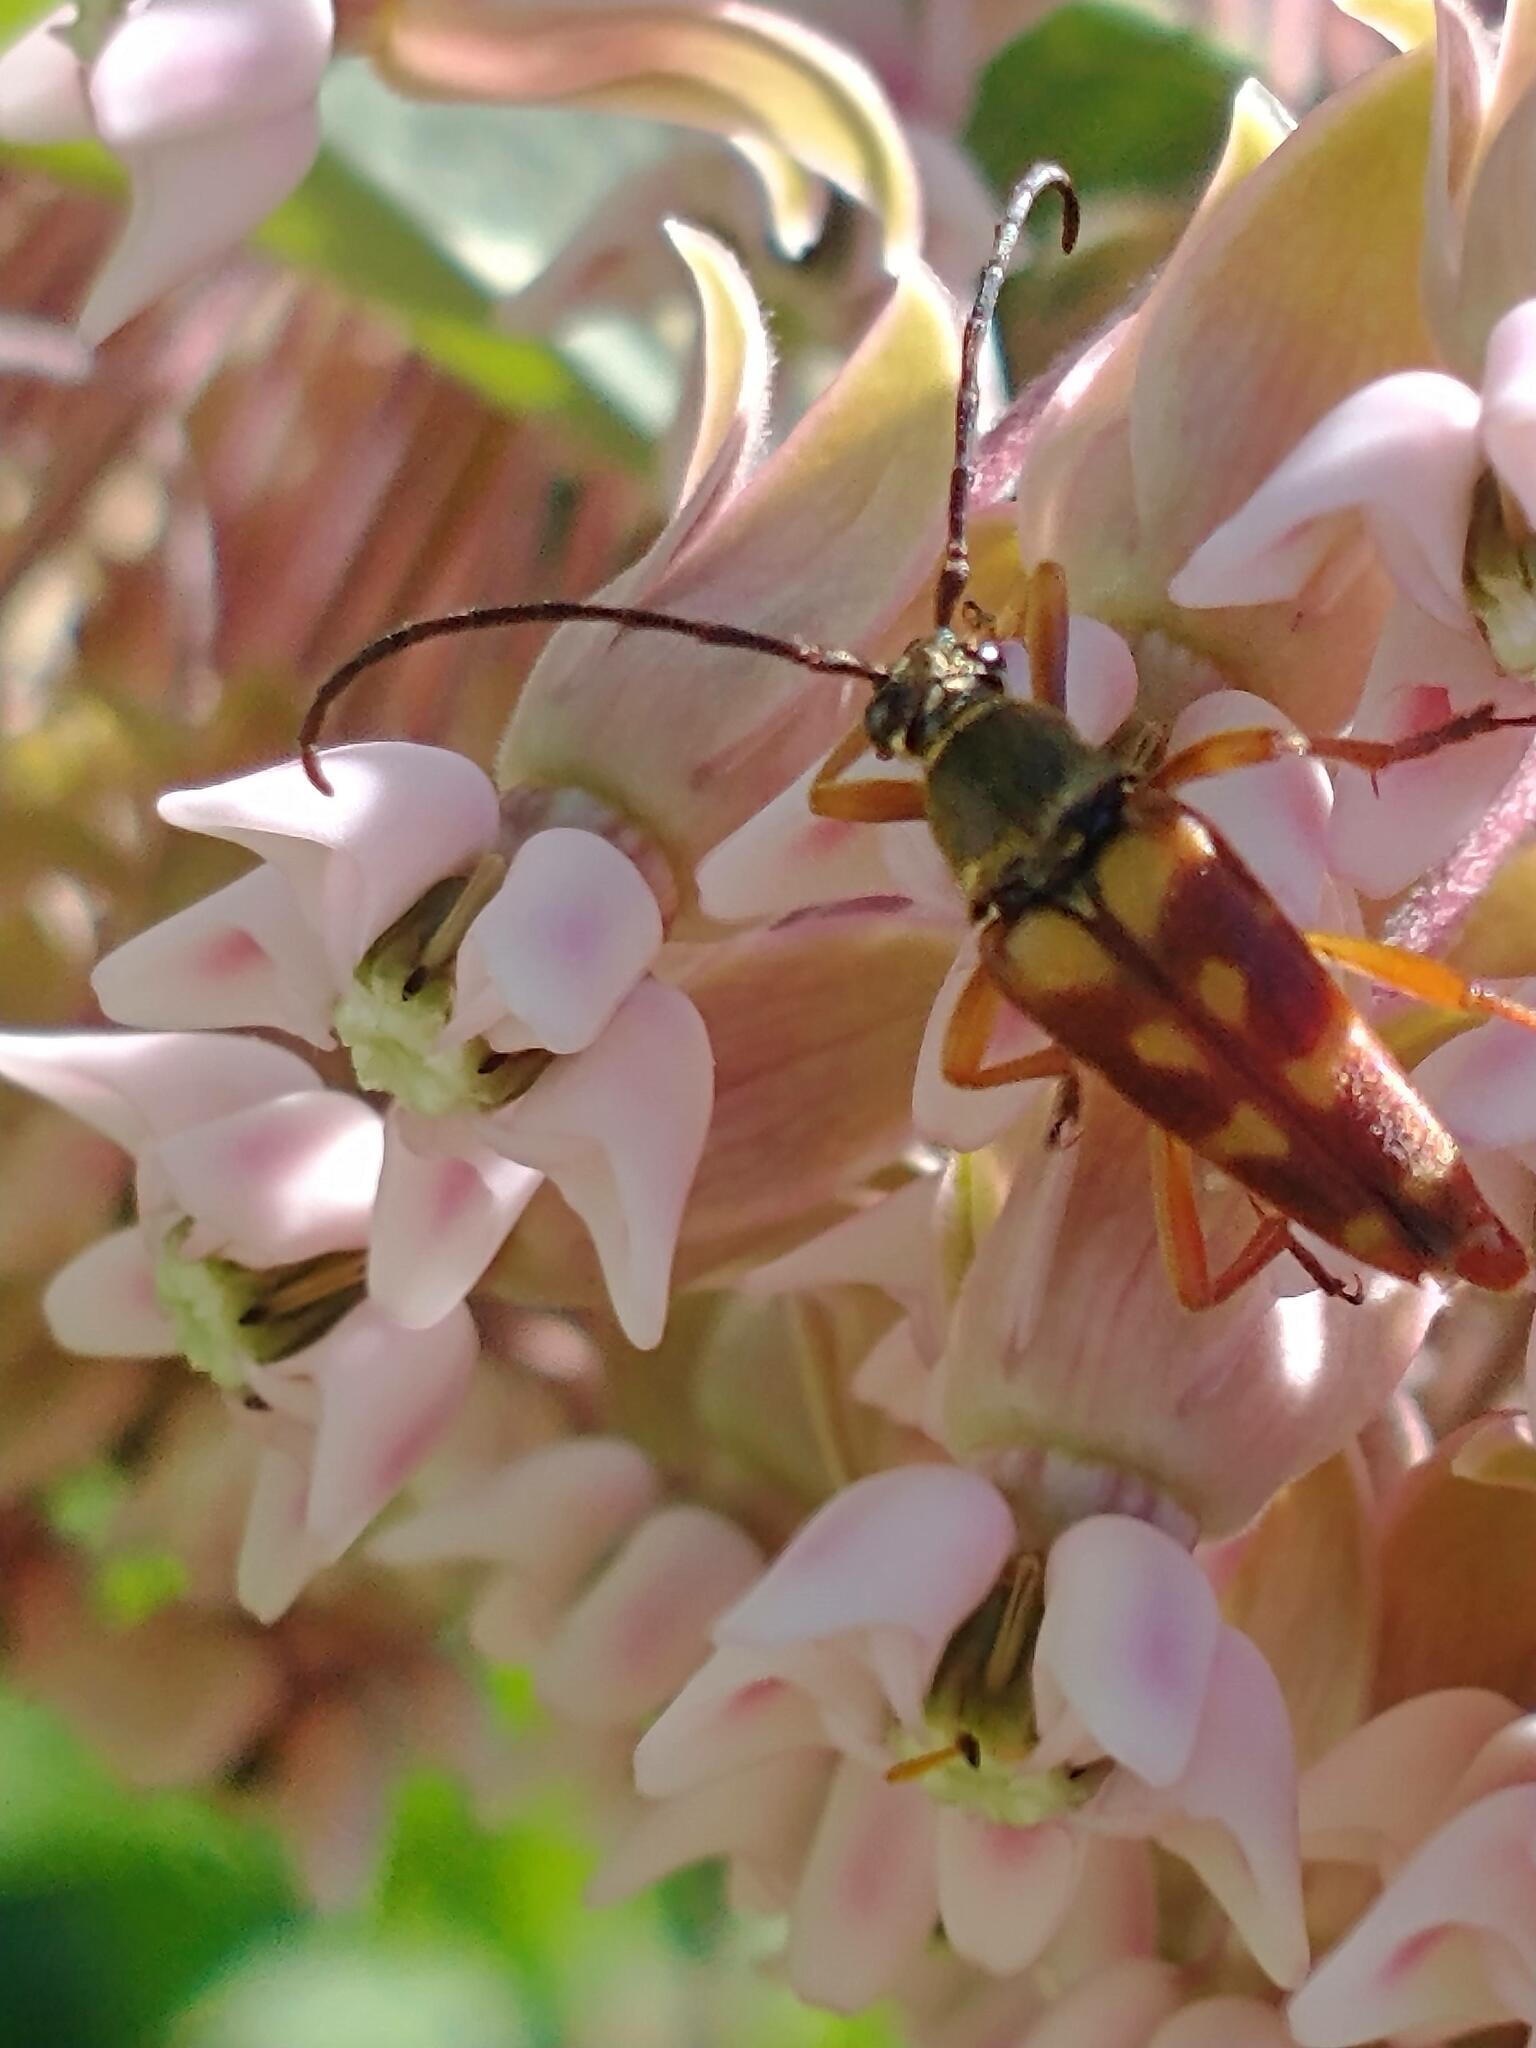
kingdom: Animalia
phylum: Arthropoda
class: Insecta
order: Coleoptera
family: Cerambycidae
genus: Typocerus
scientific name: Typocerus velutinus
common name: Banded longhorn beetle
